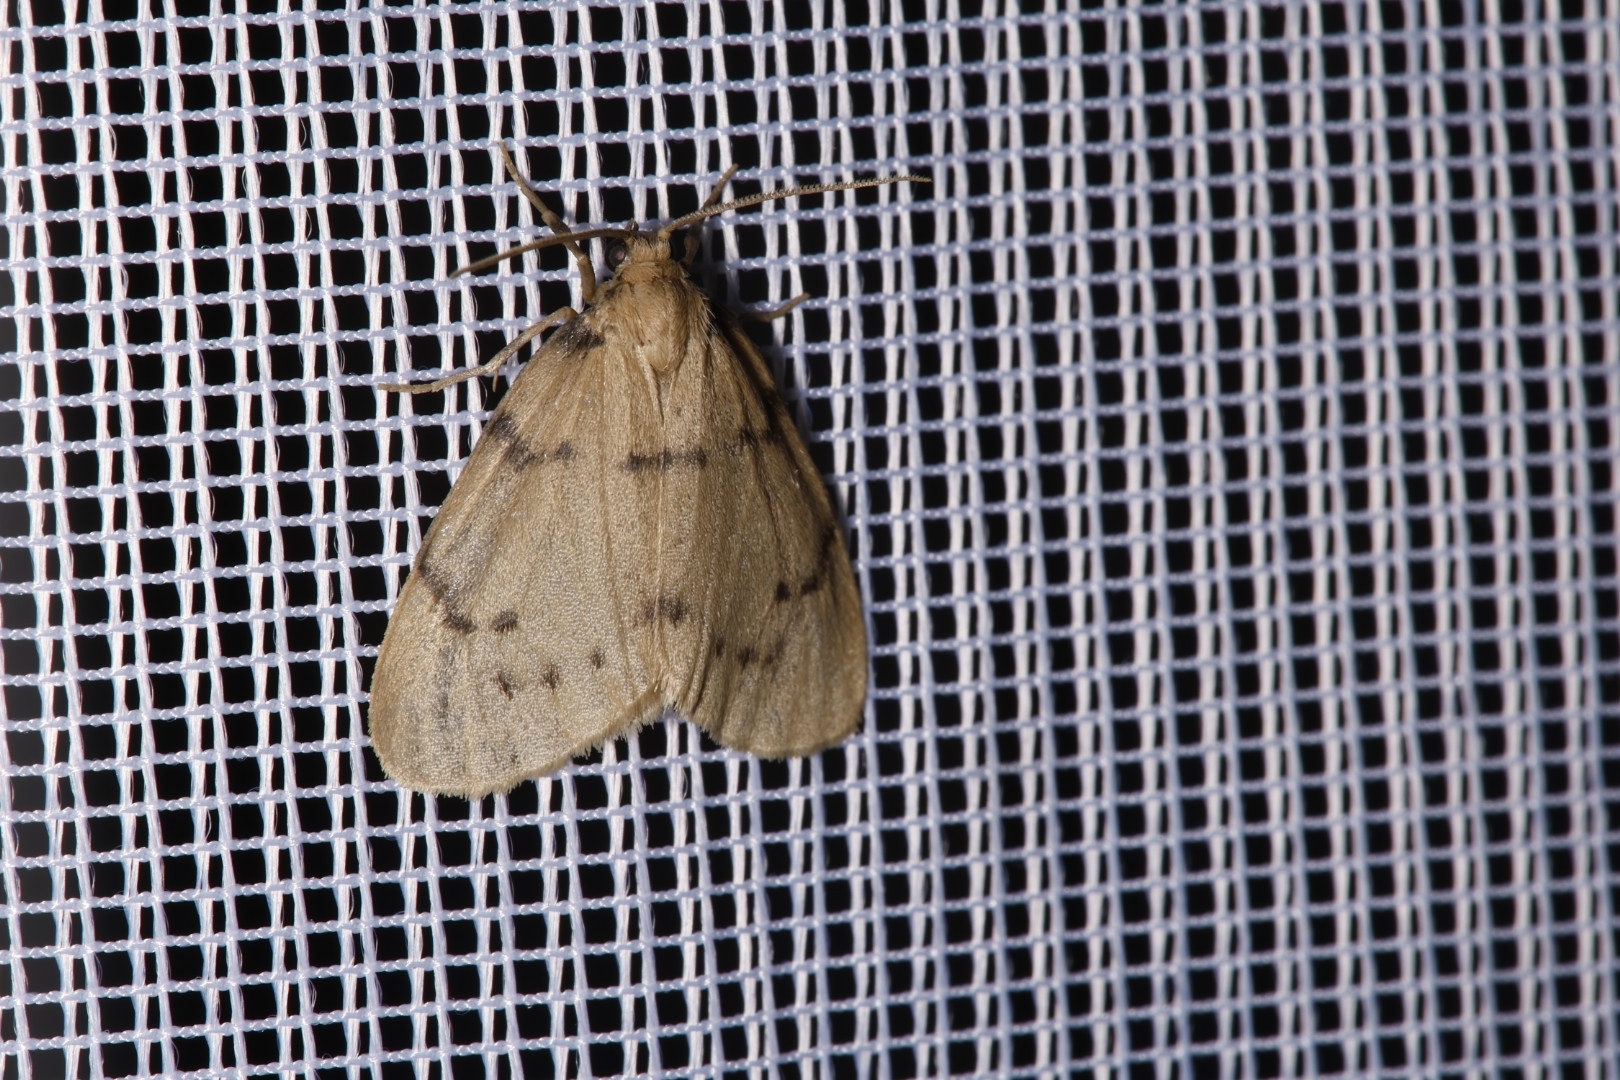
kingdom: Animalia
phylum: Arthropoda
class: Insecta
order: Lepidoptera
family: Erebidae
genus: Paidia
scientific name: Paidia rica
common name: Glaucous muslin
